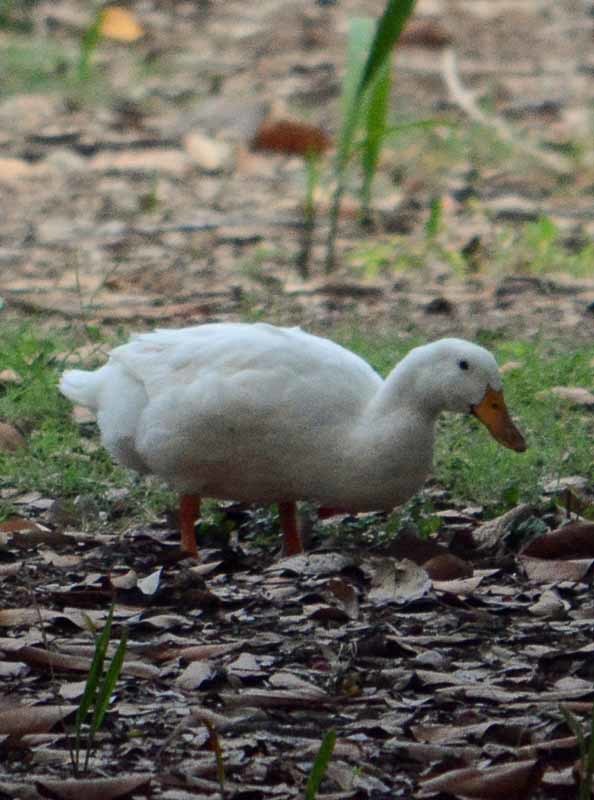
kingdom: Animalia
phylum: Chordata
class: Aves
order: Anseriformes
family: Anatidae
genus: Anas
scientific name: Anas platyrhynchos
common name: Mallard
